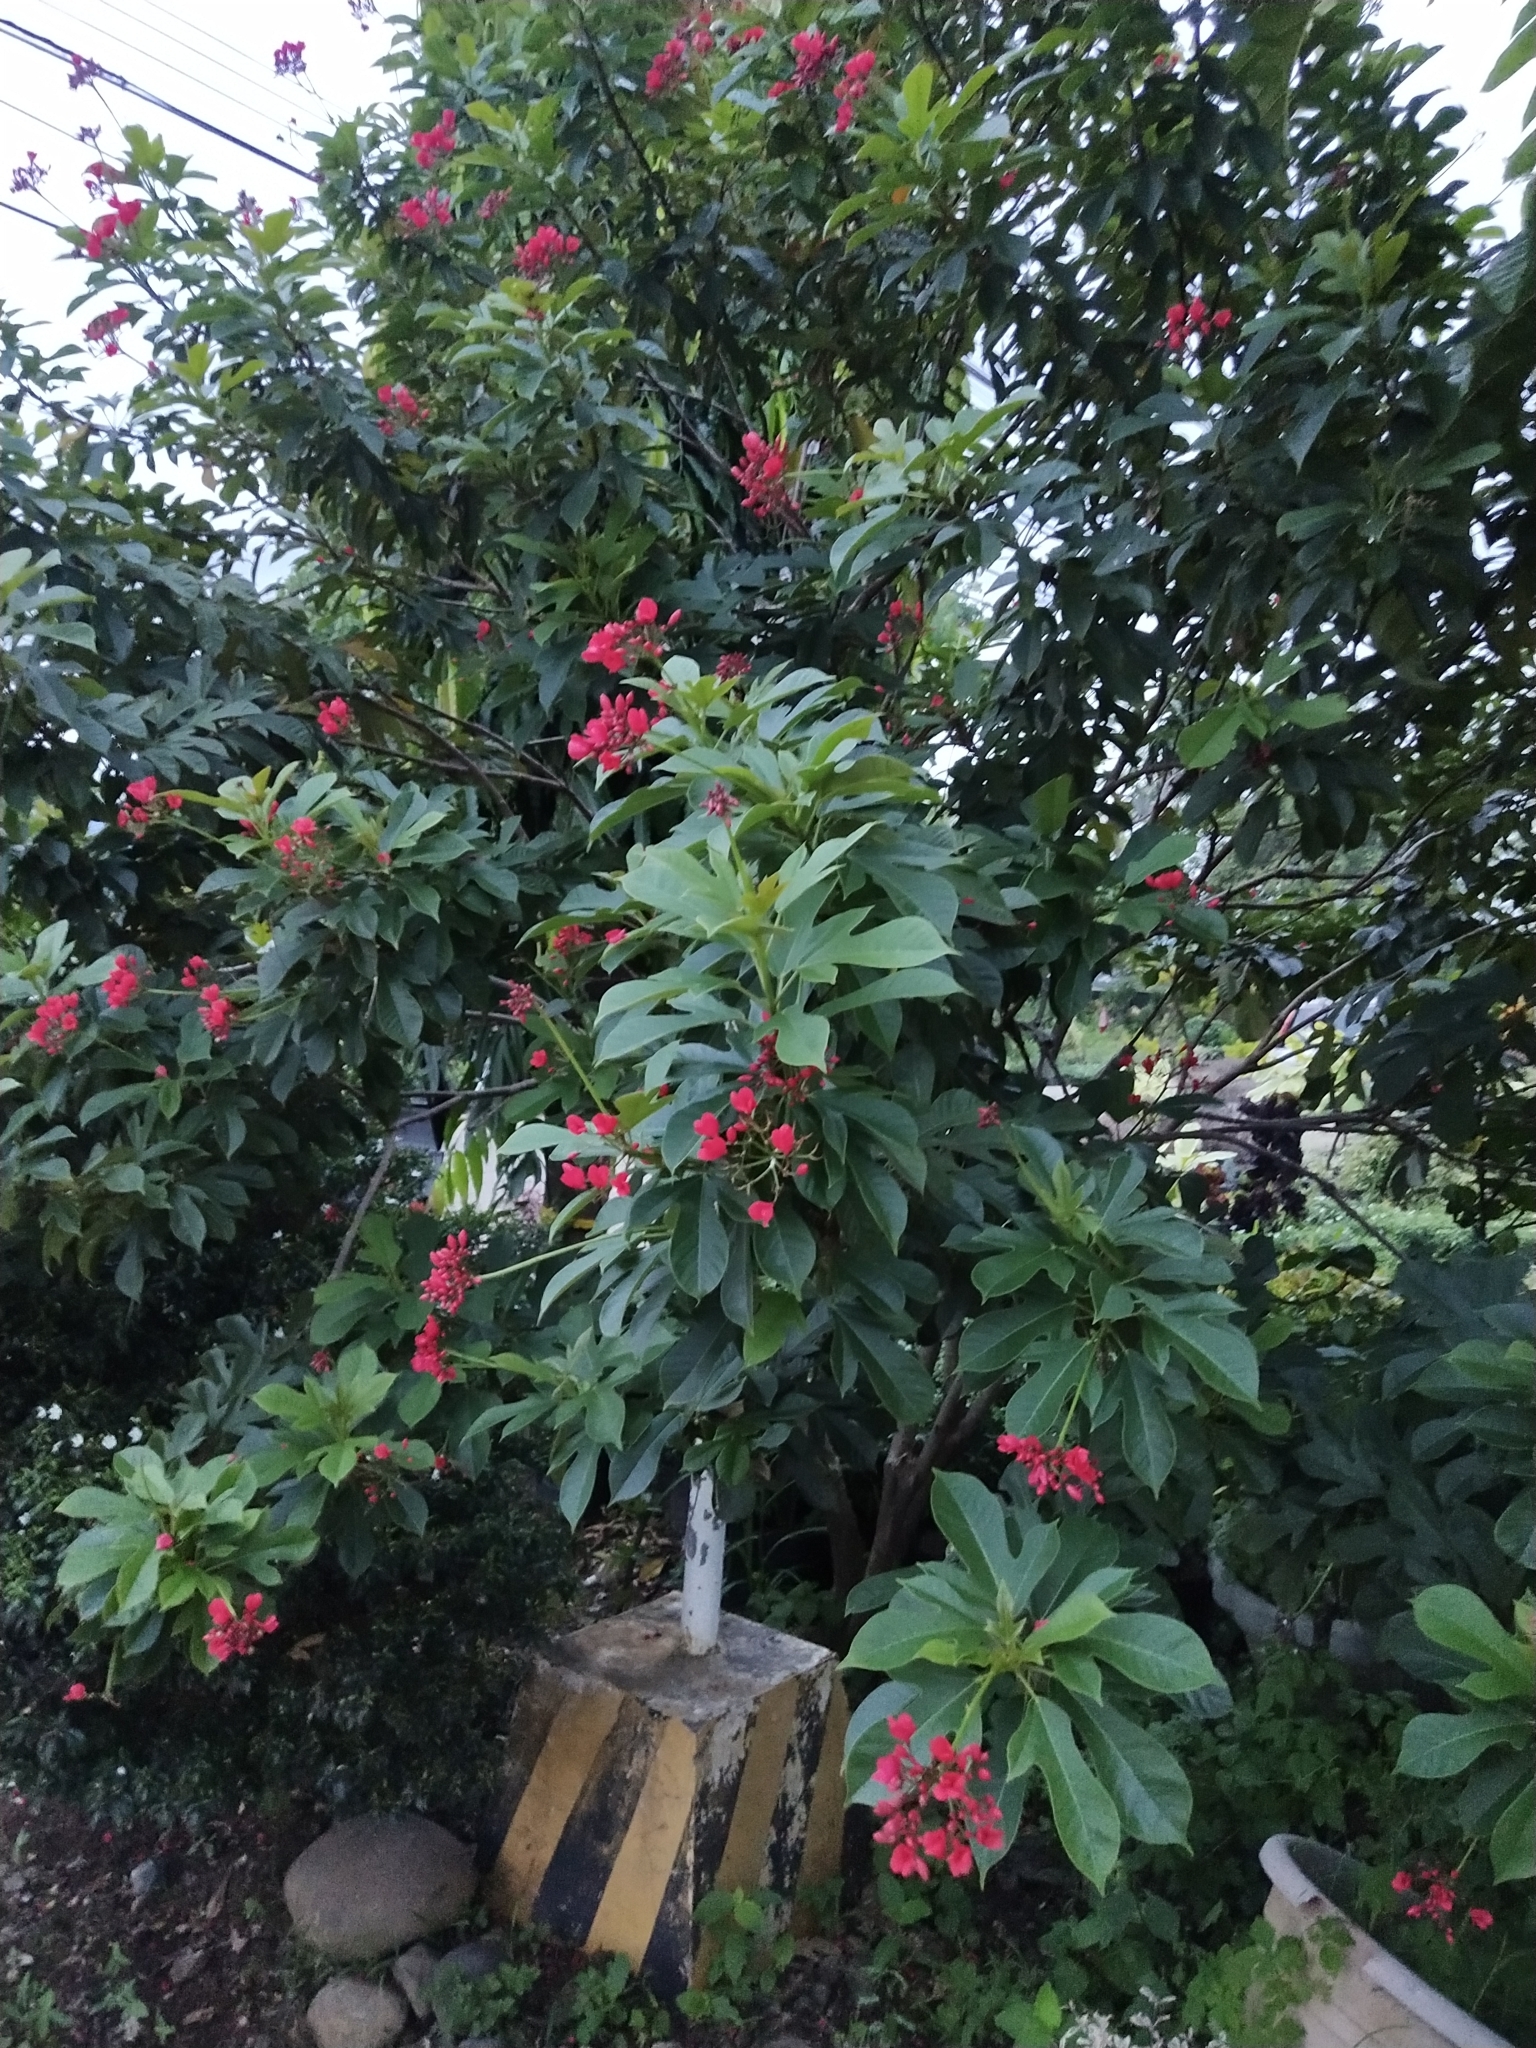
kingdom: Plantae
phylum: Tracheophyta
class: Magnoliopsida
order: Malpighiales
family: Euphorbiaceae
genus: Jatropha
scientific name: Jatropha integerrima
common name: Peregrina
